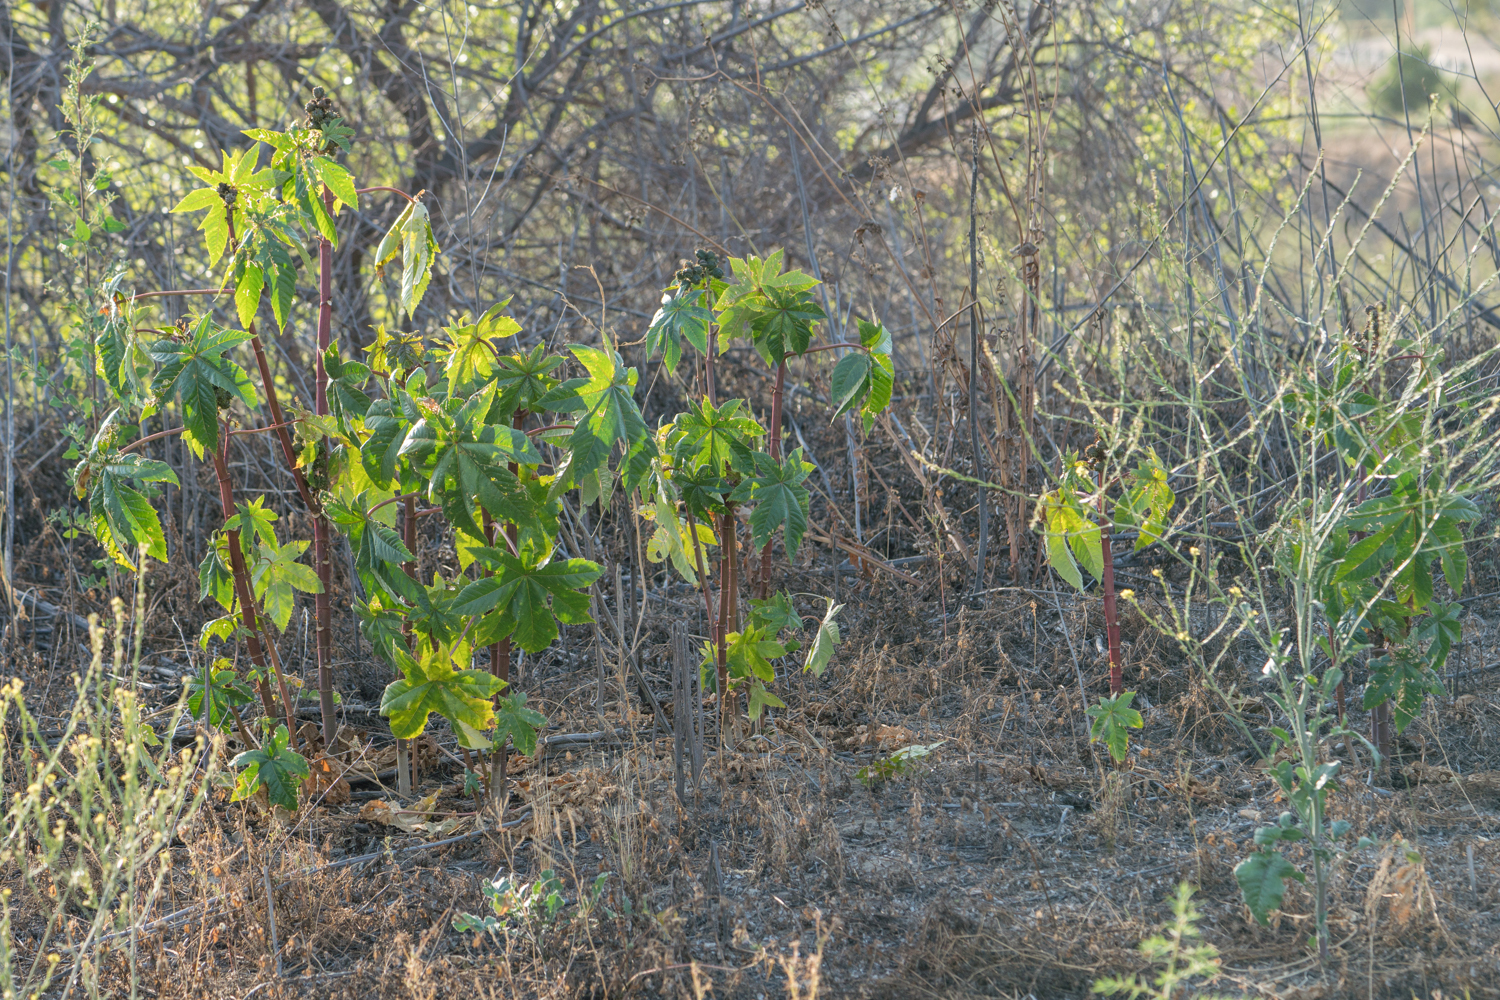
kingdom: Plantae
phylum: Tracheophyta
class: Magnoliopsida
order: Malpighiales
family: Euphorbiaceae
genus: Ricinus
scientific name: Ricinus communis
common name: Castor-oil-plant
